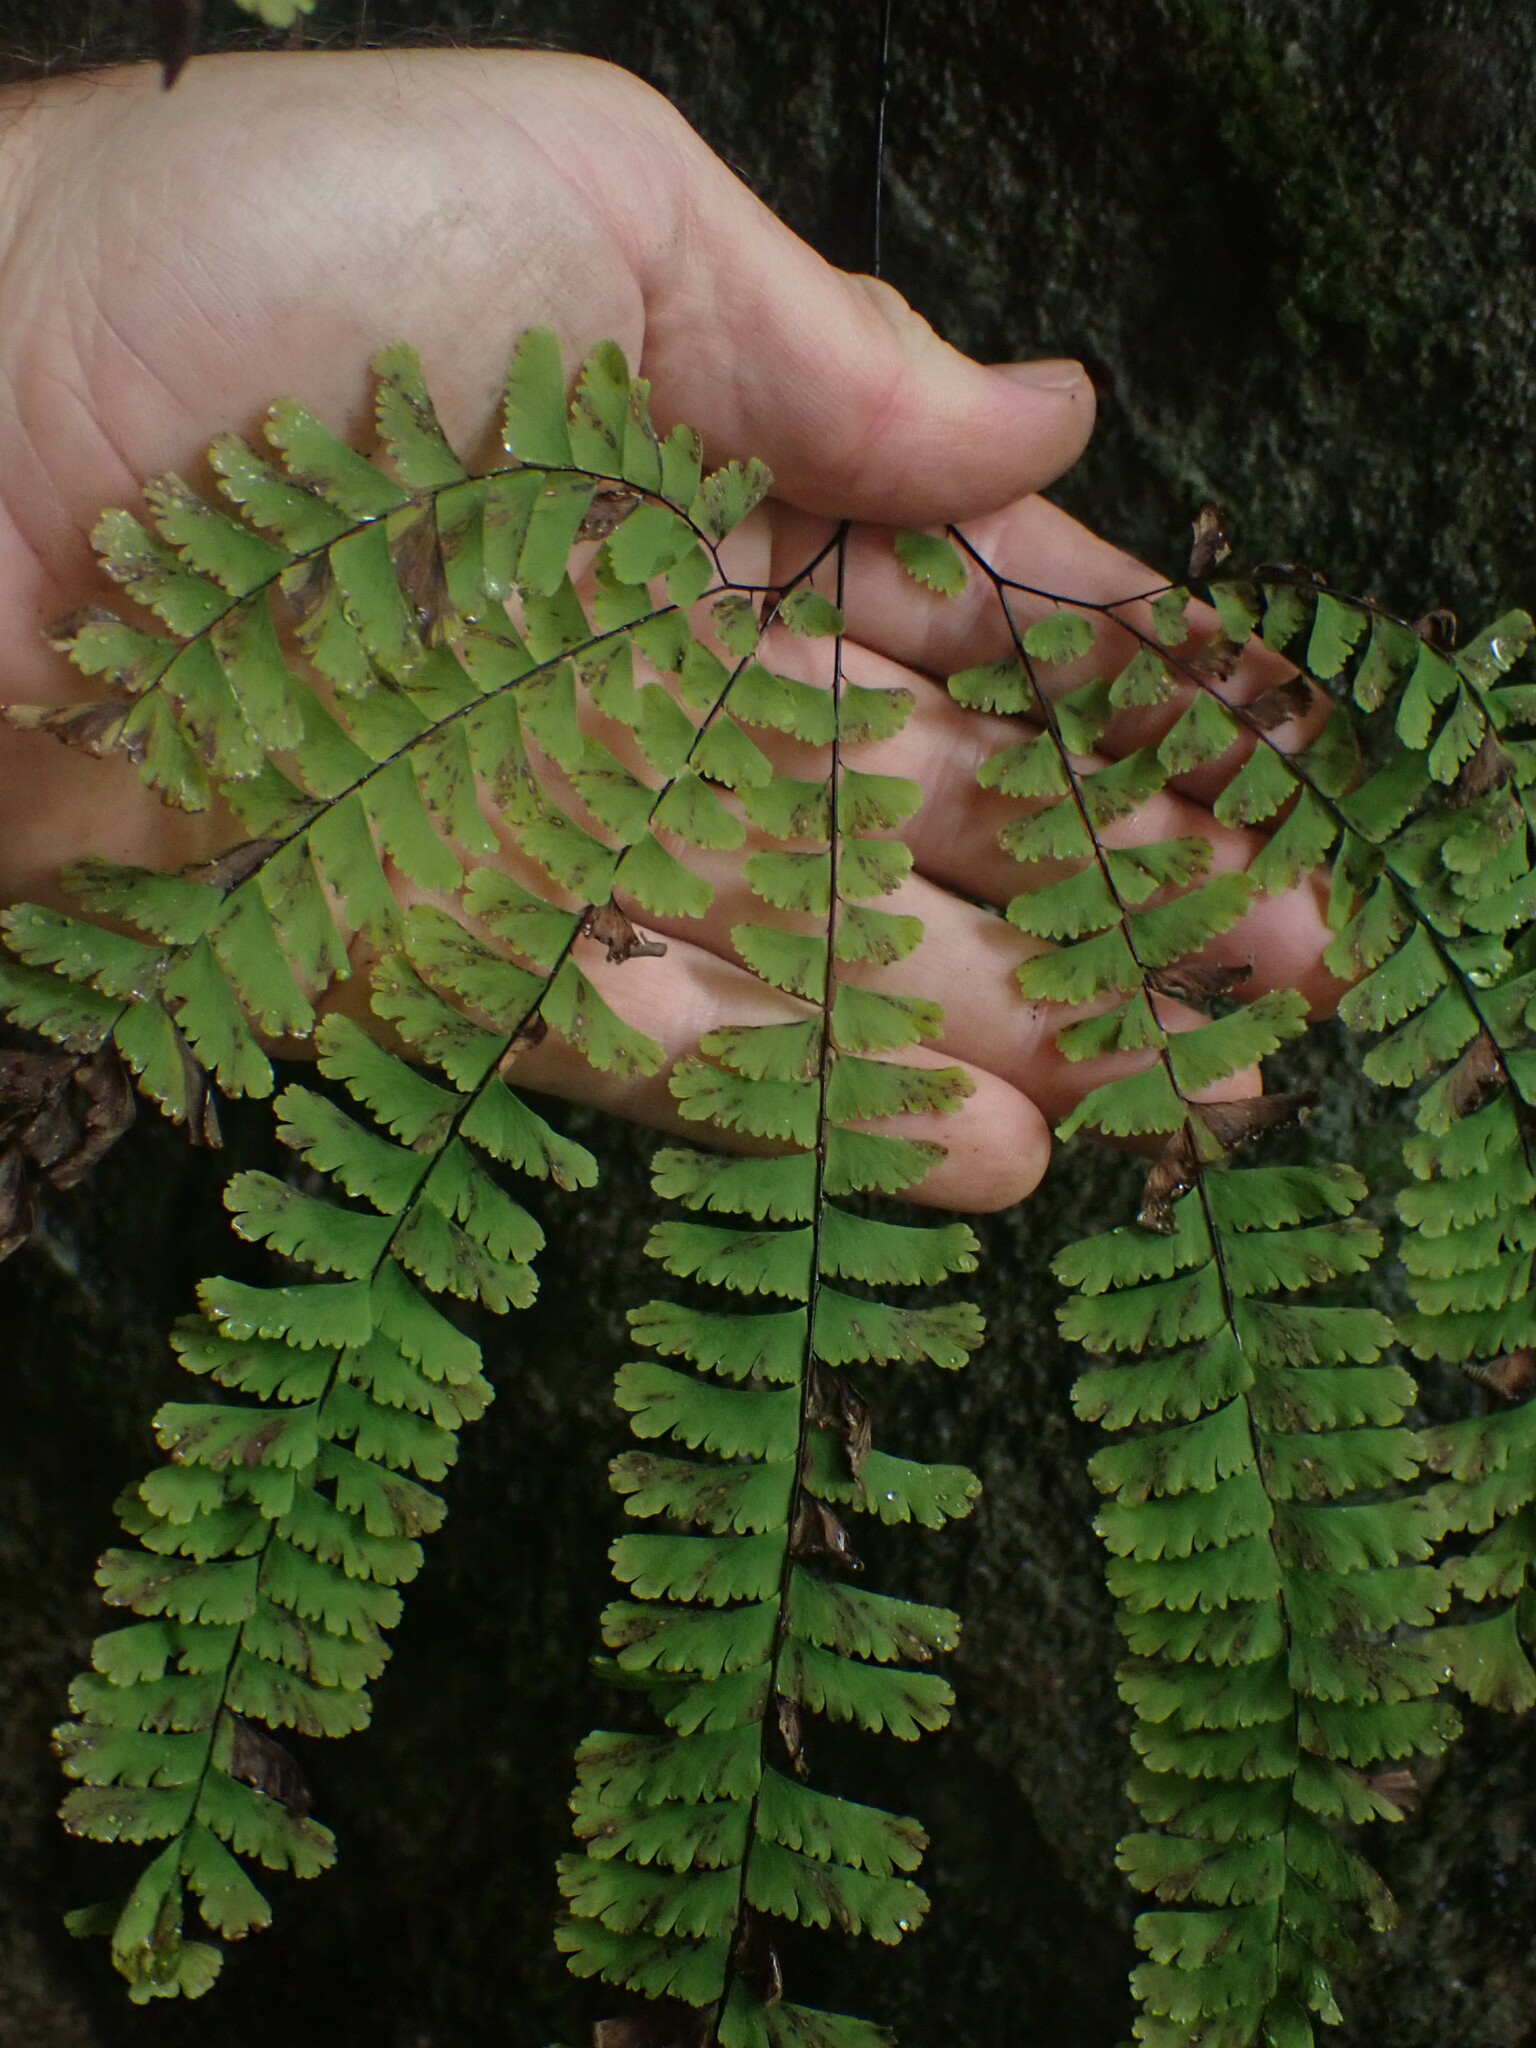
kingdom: Plantae
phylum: Tracheophyta
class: Polypodiopsida
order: Polypodiales
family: Pteridaceae
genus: Adiantum
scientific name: Adiantum aleuticum
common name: Aleutian maidenhair fern
